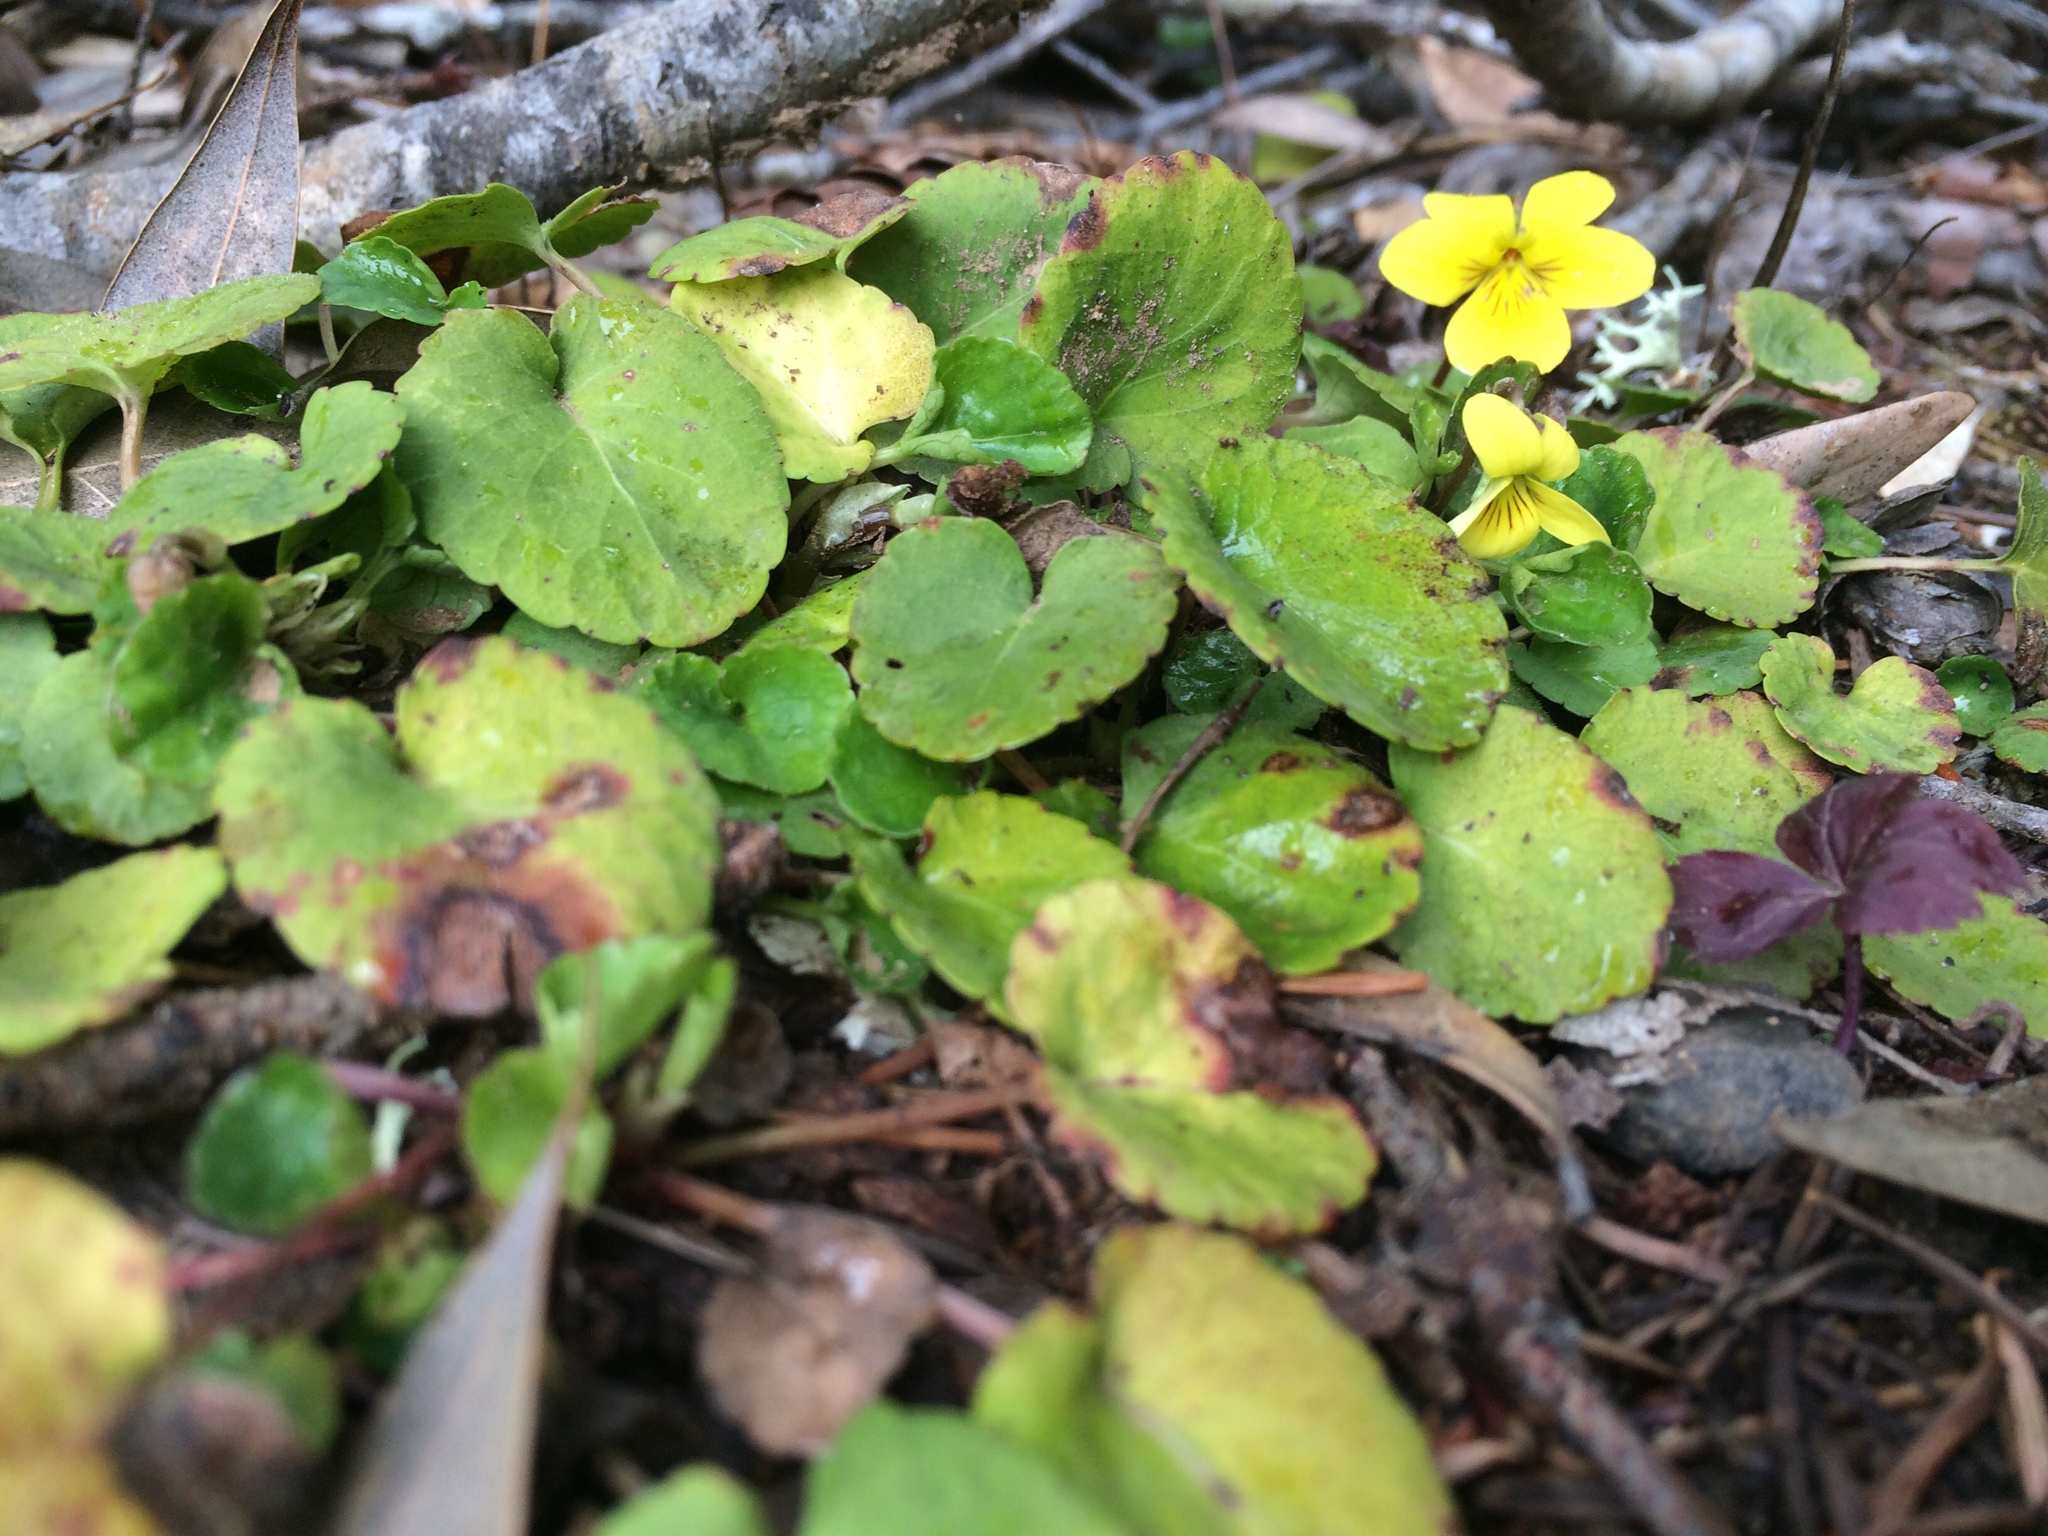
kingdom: Plantae
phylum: Tracheophyta
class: Magnoliopsida
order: Malpighiales
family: Violaceae
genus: Viola
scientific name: Viola sempervirens
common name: Evergreen violet
